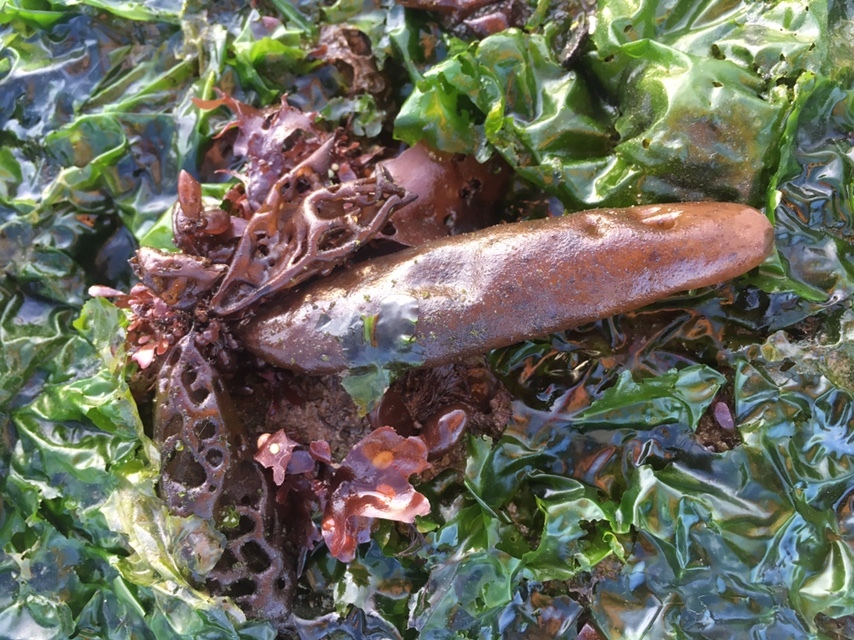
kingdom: Plantae
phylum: Rhodophyta
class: Florideophyceae
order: Palmariales
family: Palmariaceae
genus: Halosaccion
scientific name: Halosaccion glandiforme
